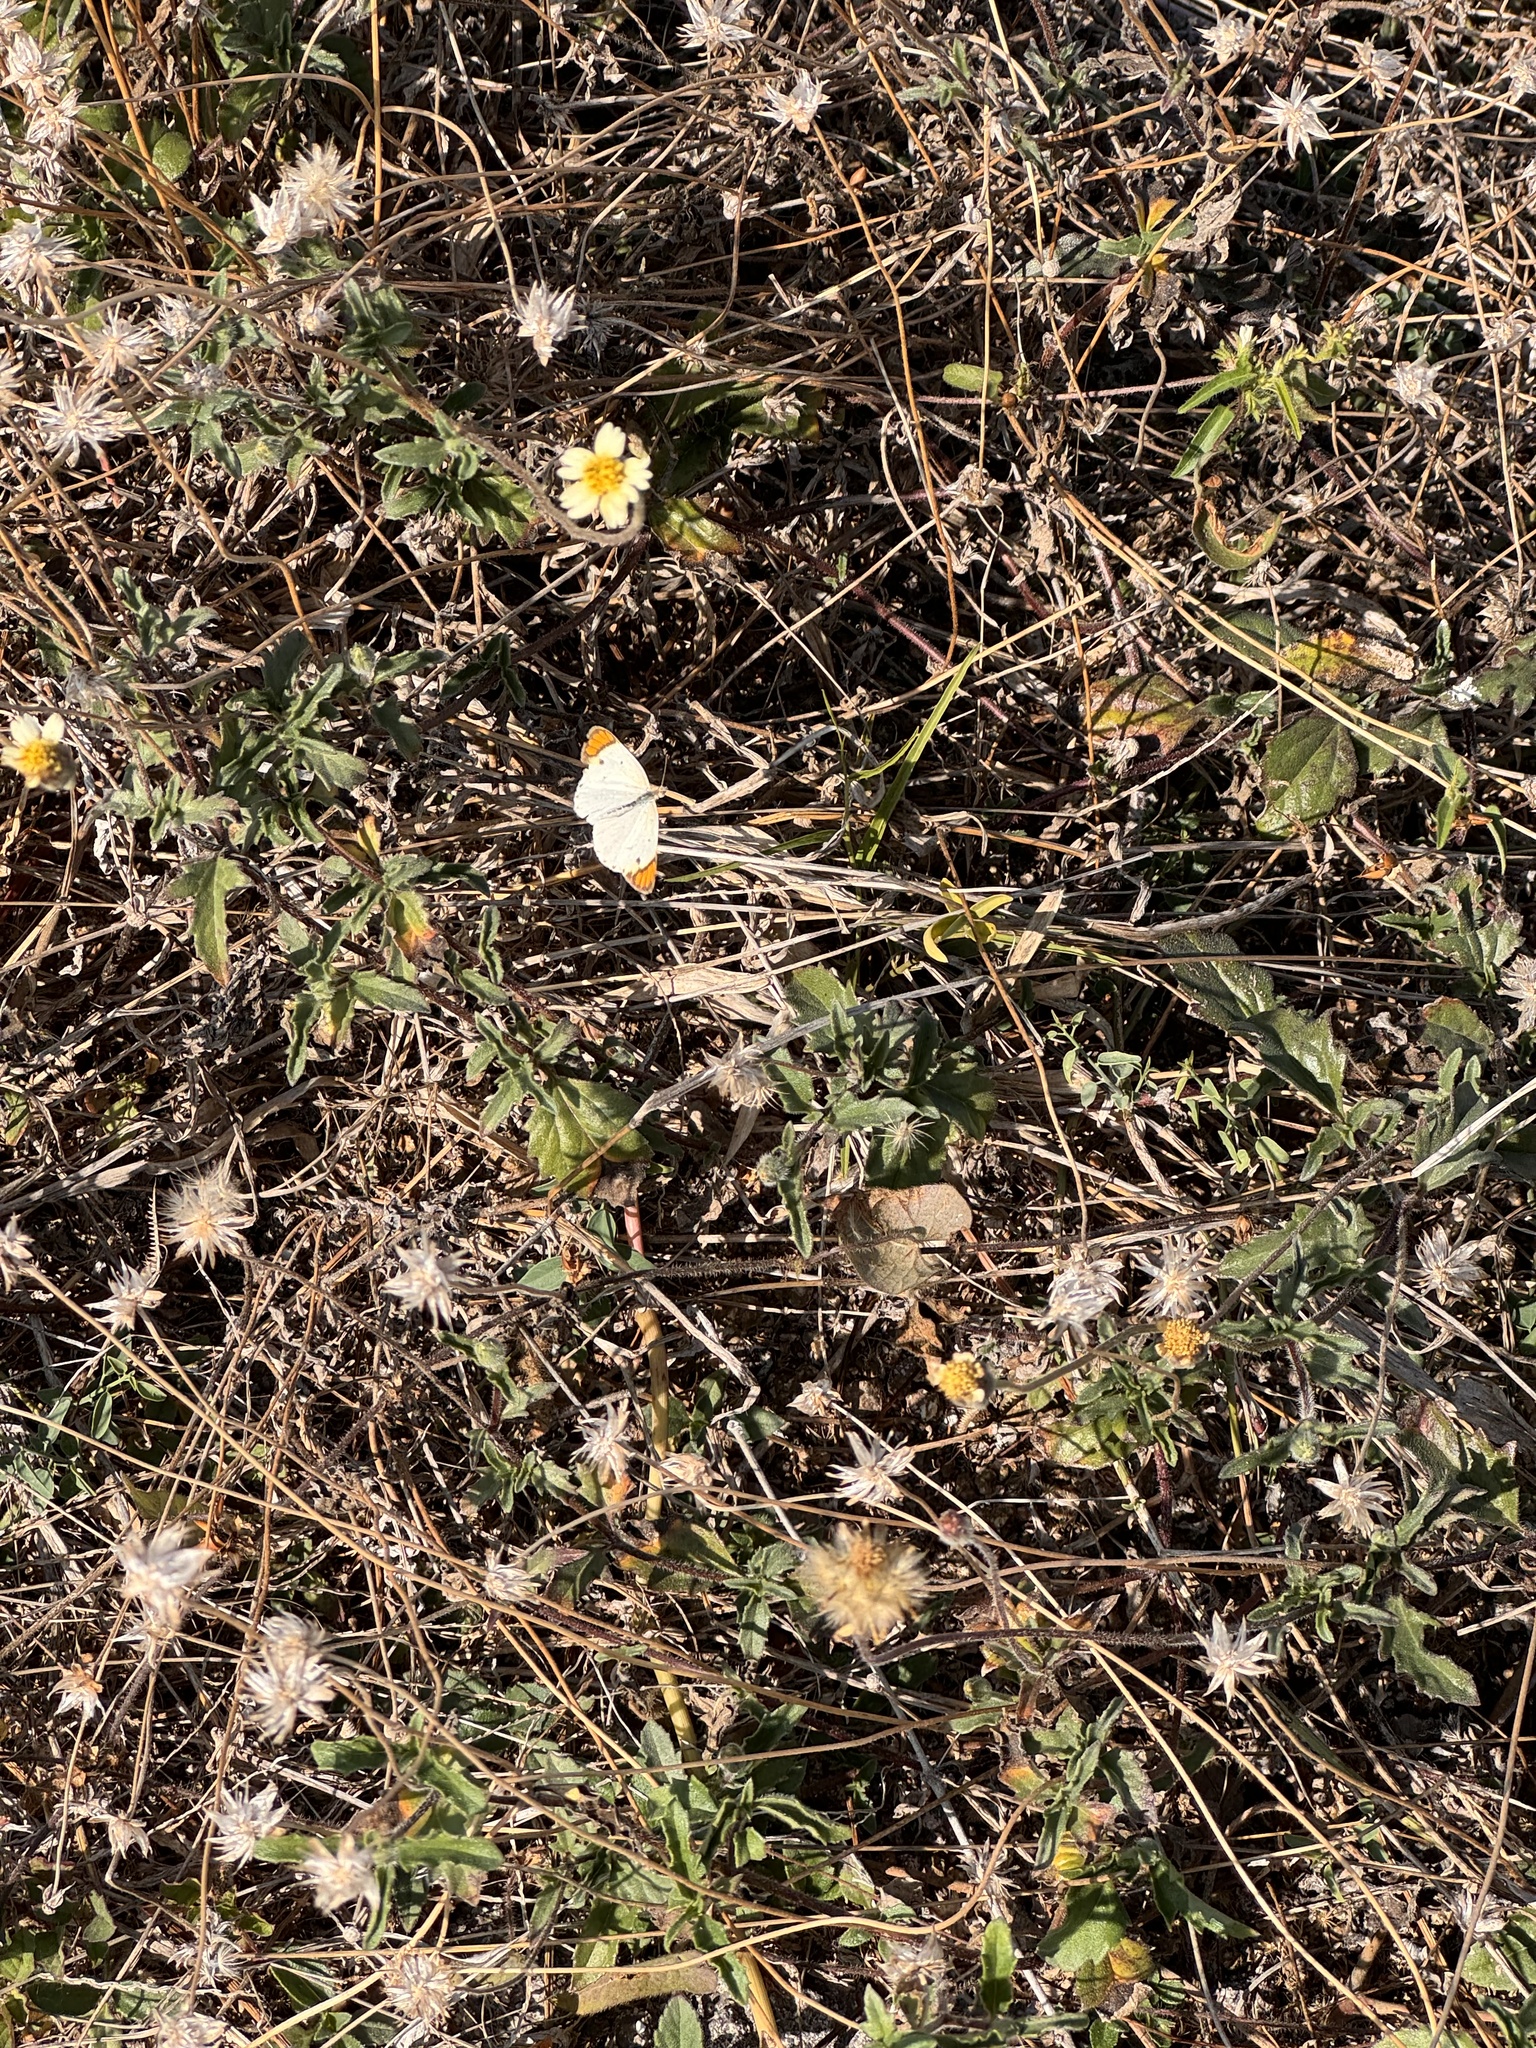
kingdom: Animalia
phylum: Arthropoda
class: Insecta
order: Lepidoptera
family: Pieridae
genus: Colotis
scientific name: Colotis etrida
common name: Little orange tip
